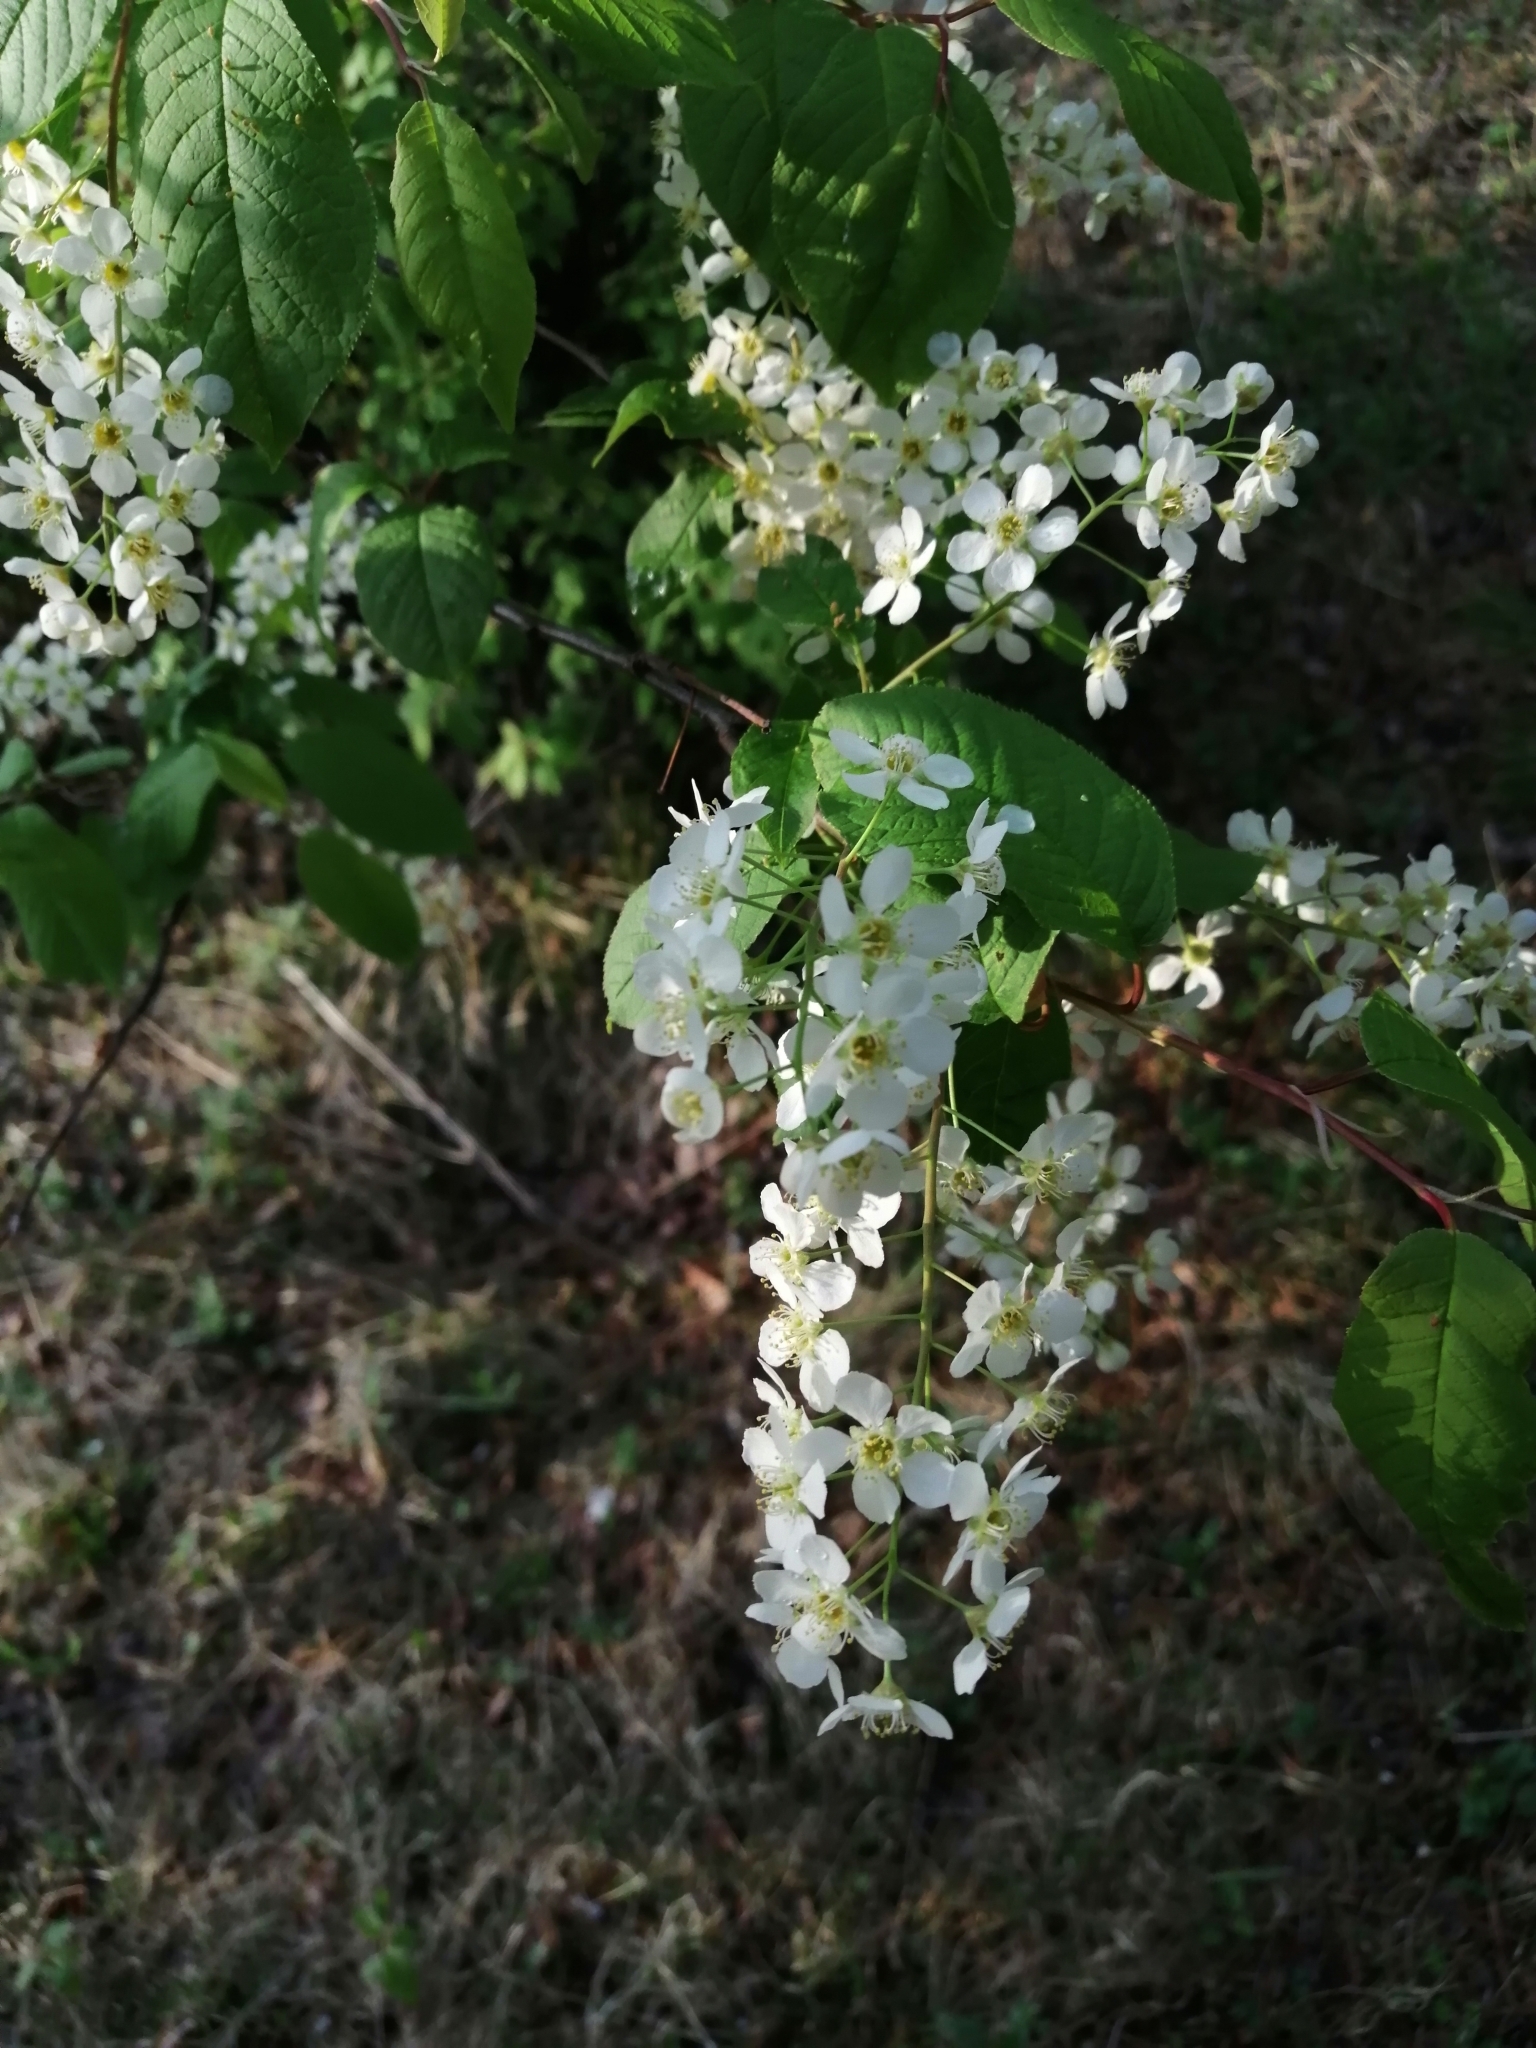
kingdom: Plantae
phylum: Tracheophyta
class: Magnoliopsida
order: Rosales
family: Rosaceae
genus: Prunus
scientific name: Prunus padus
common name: Bird cherry
